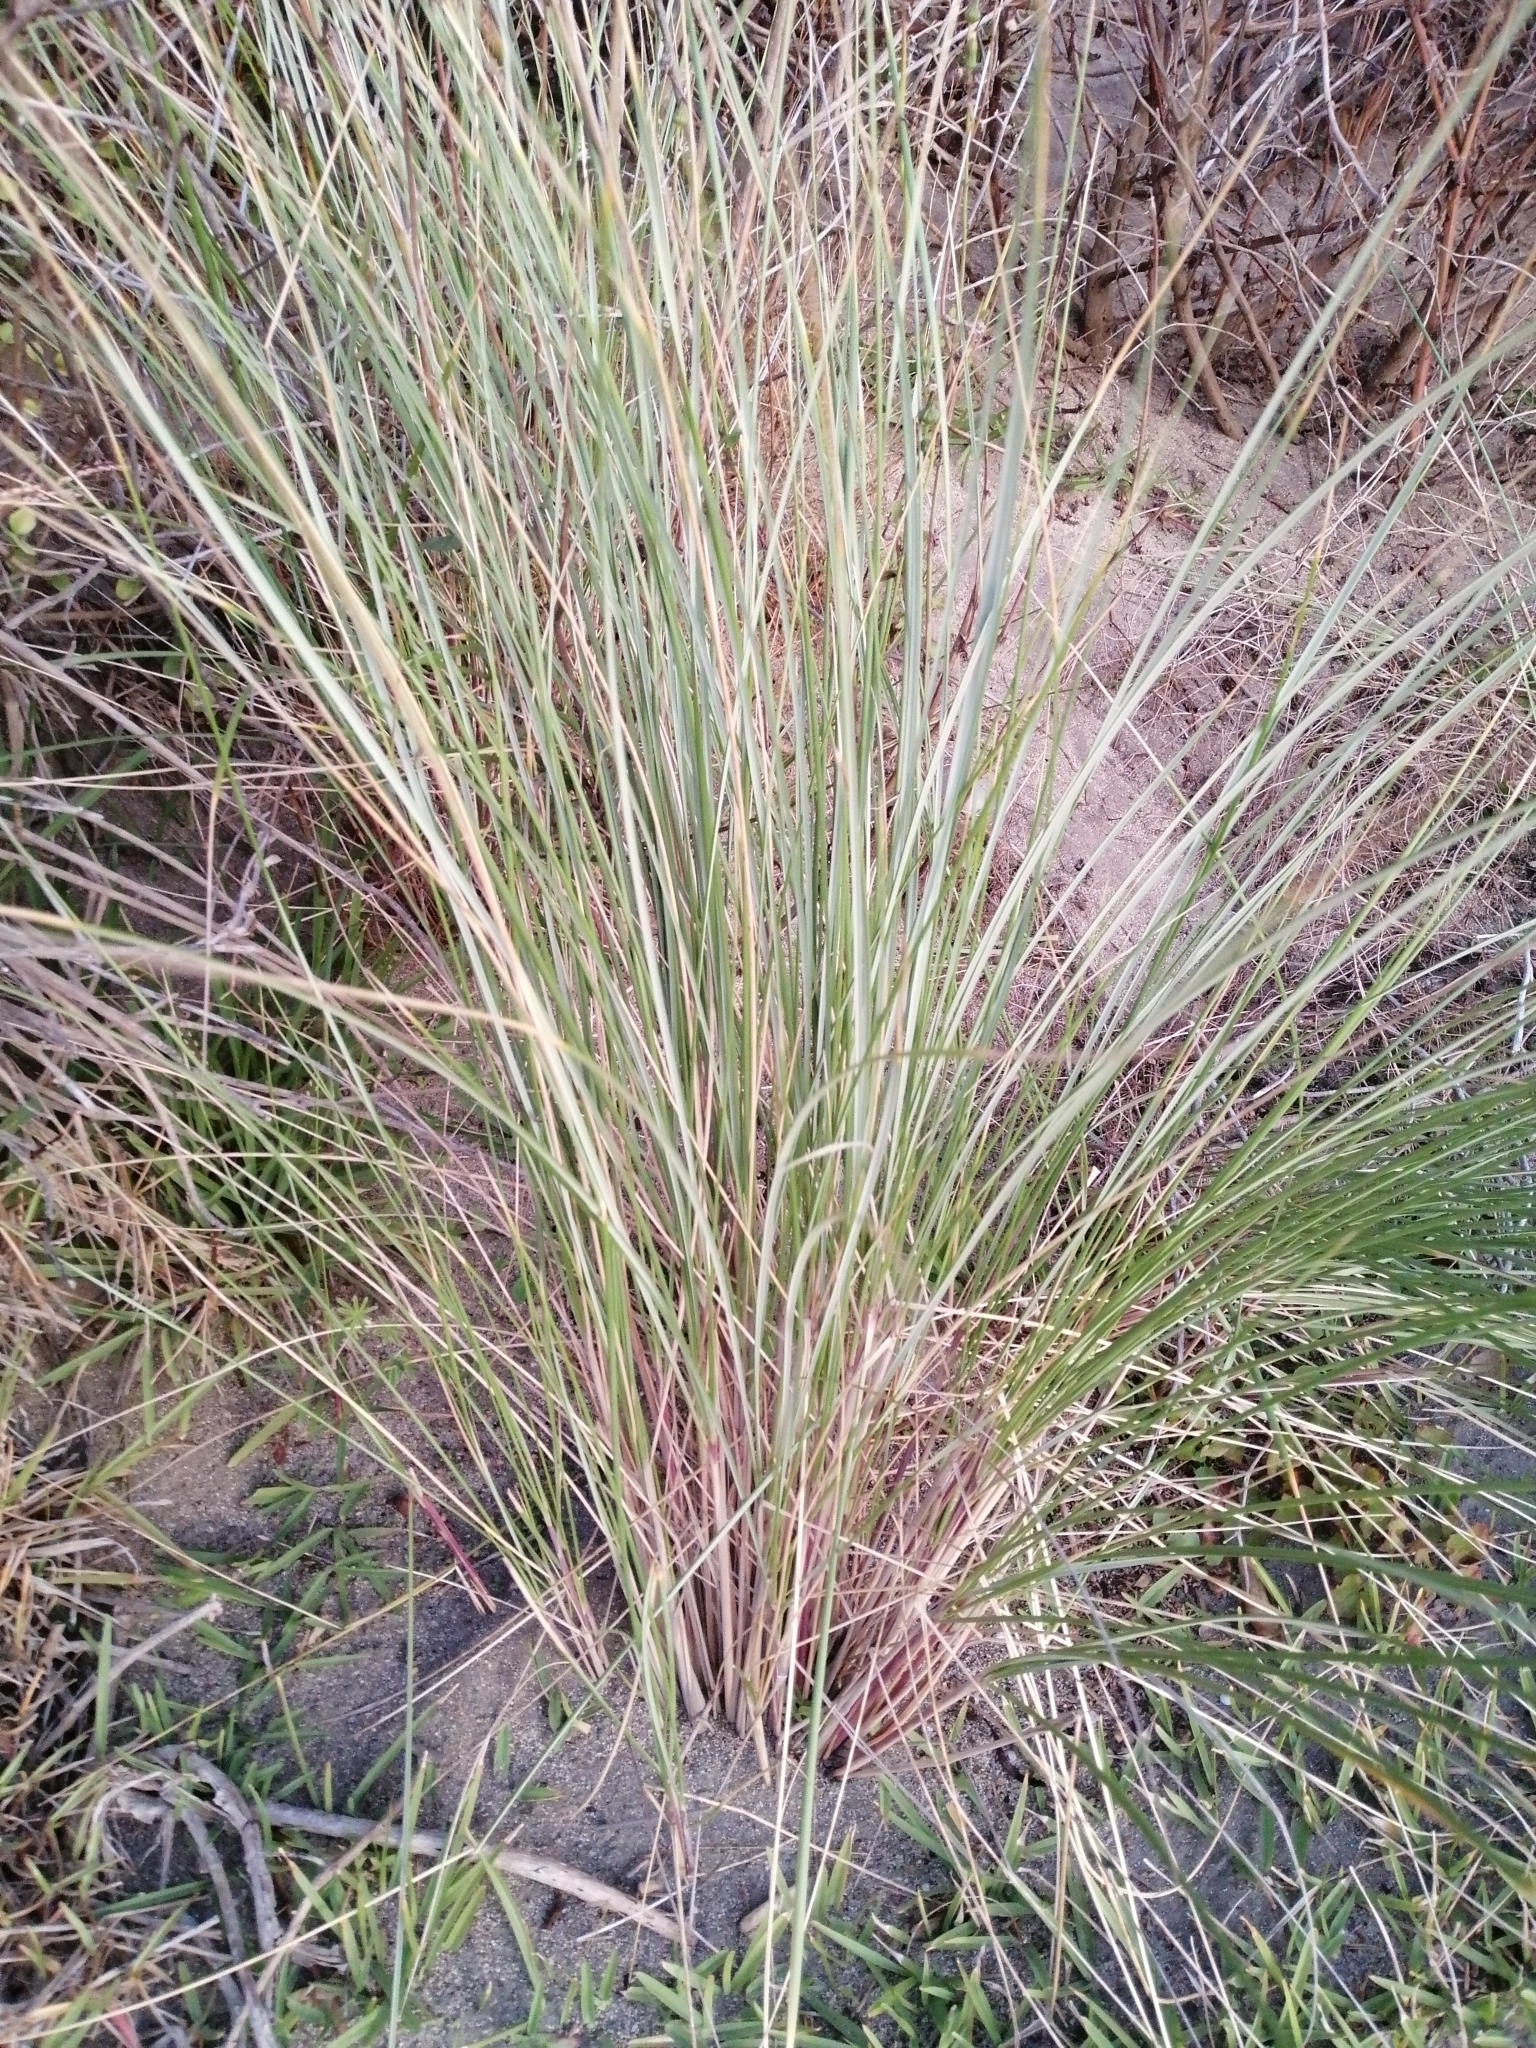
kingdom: Plantae
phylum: Tracheophyta
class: Liliopsida
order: Poales
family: Poaceae
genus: Calamagrostis
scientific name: Calamagrostis arenaria
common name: European beachgrass
